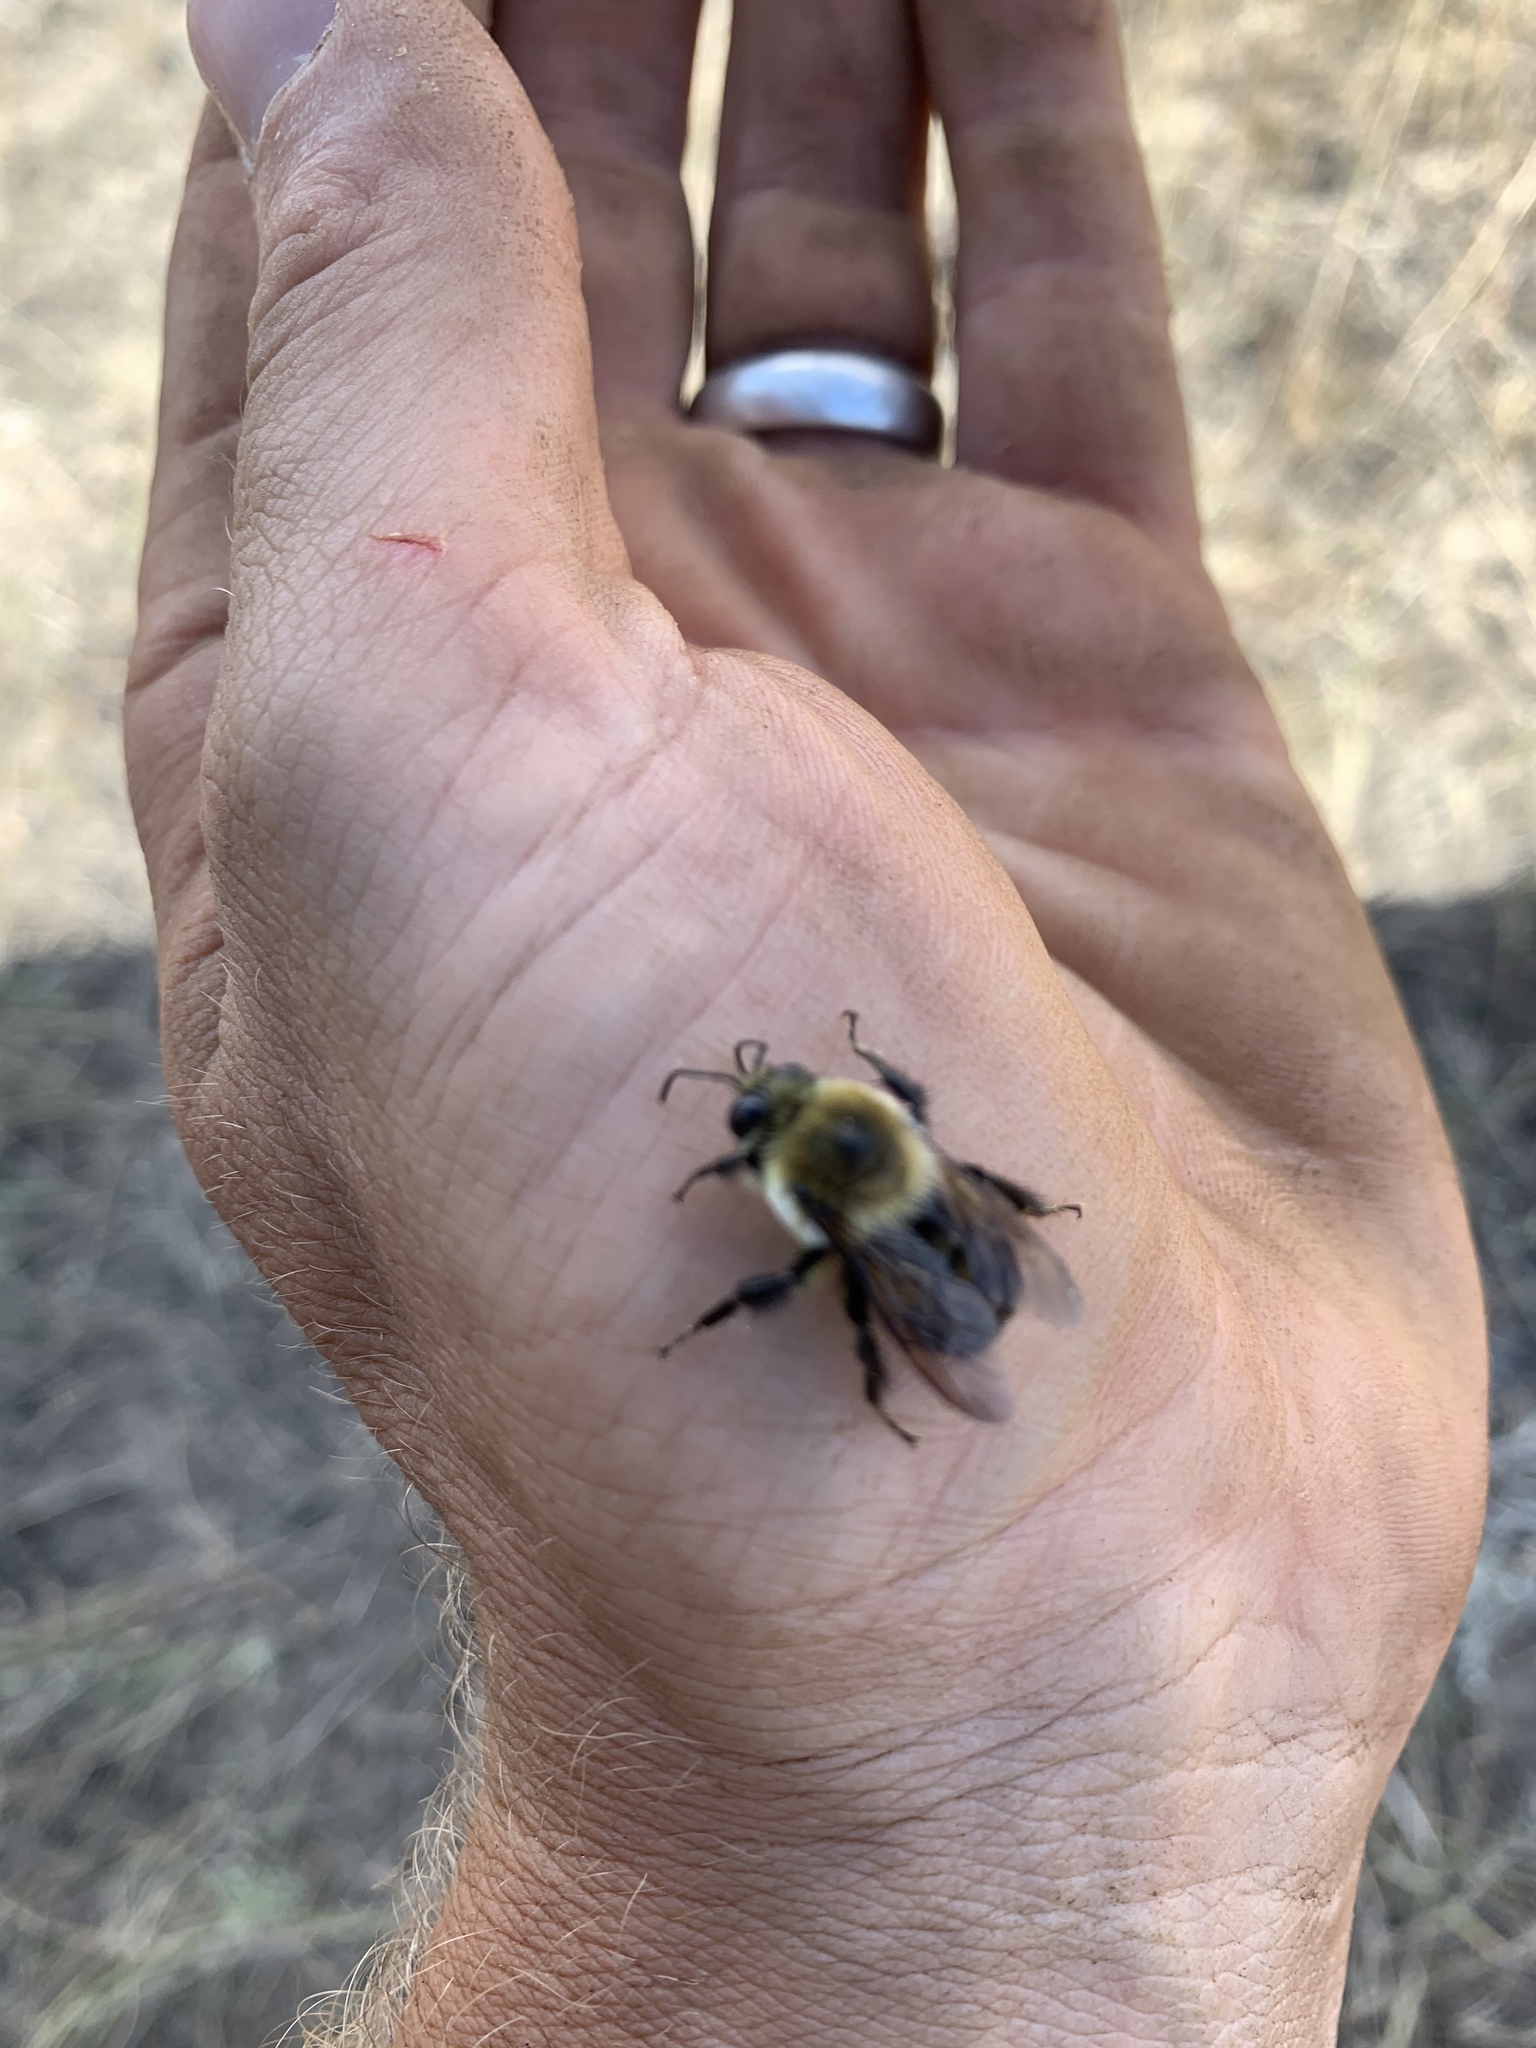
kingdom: Animalia
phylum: Arthropoda
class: Insecta
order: Hymenoptera
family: Apidae
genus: Bombus
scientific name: Bombus griseocollis
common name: Brown-belted bumble bee
